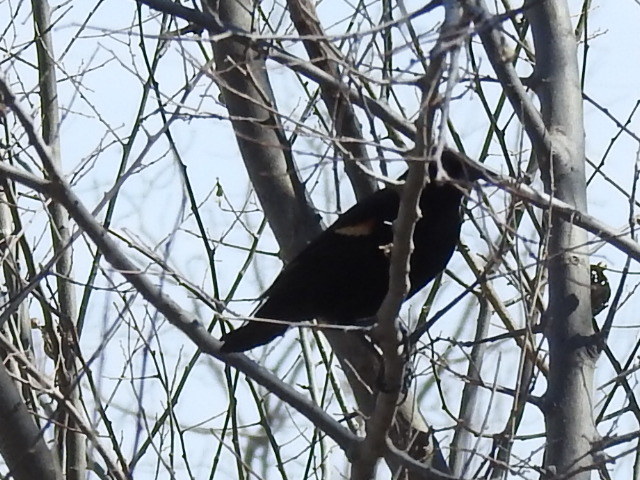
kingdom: Animalia
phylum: Chordata
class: Aves
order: Passeriformes
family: Icteridae
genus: Agelaius
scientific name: Agelaius phoeniceus
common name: Red-winged blackbird
